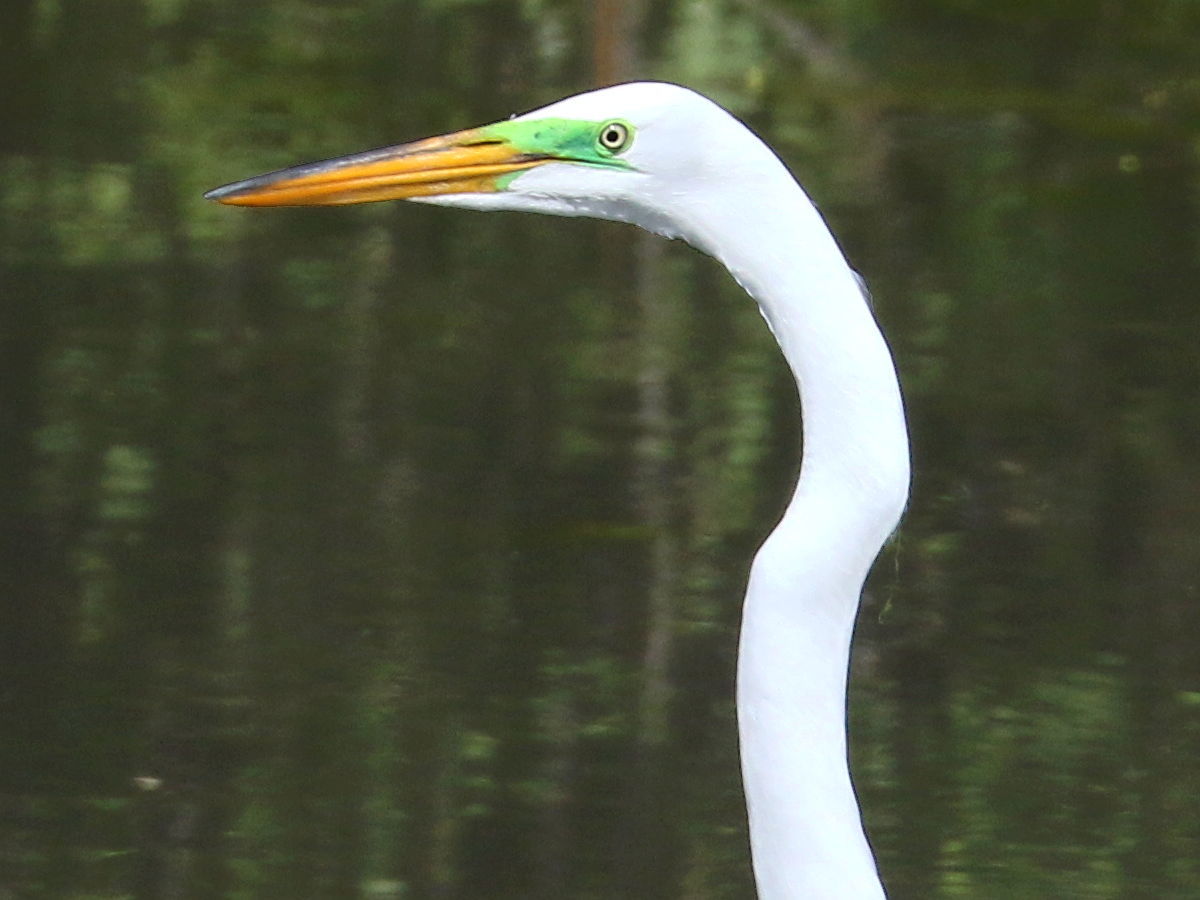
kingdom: Animalia
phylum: Chordata
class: Aves
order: Pelecaniformes
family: Ardeidae
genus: Ardea
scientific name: Ardea alba
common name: Great egret
